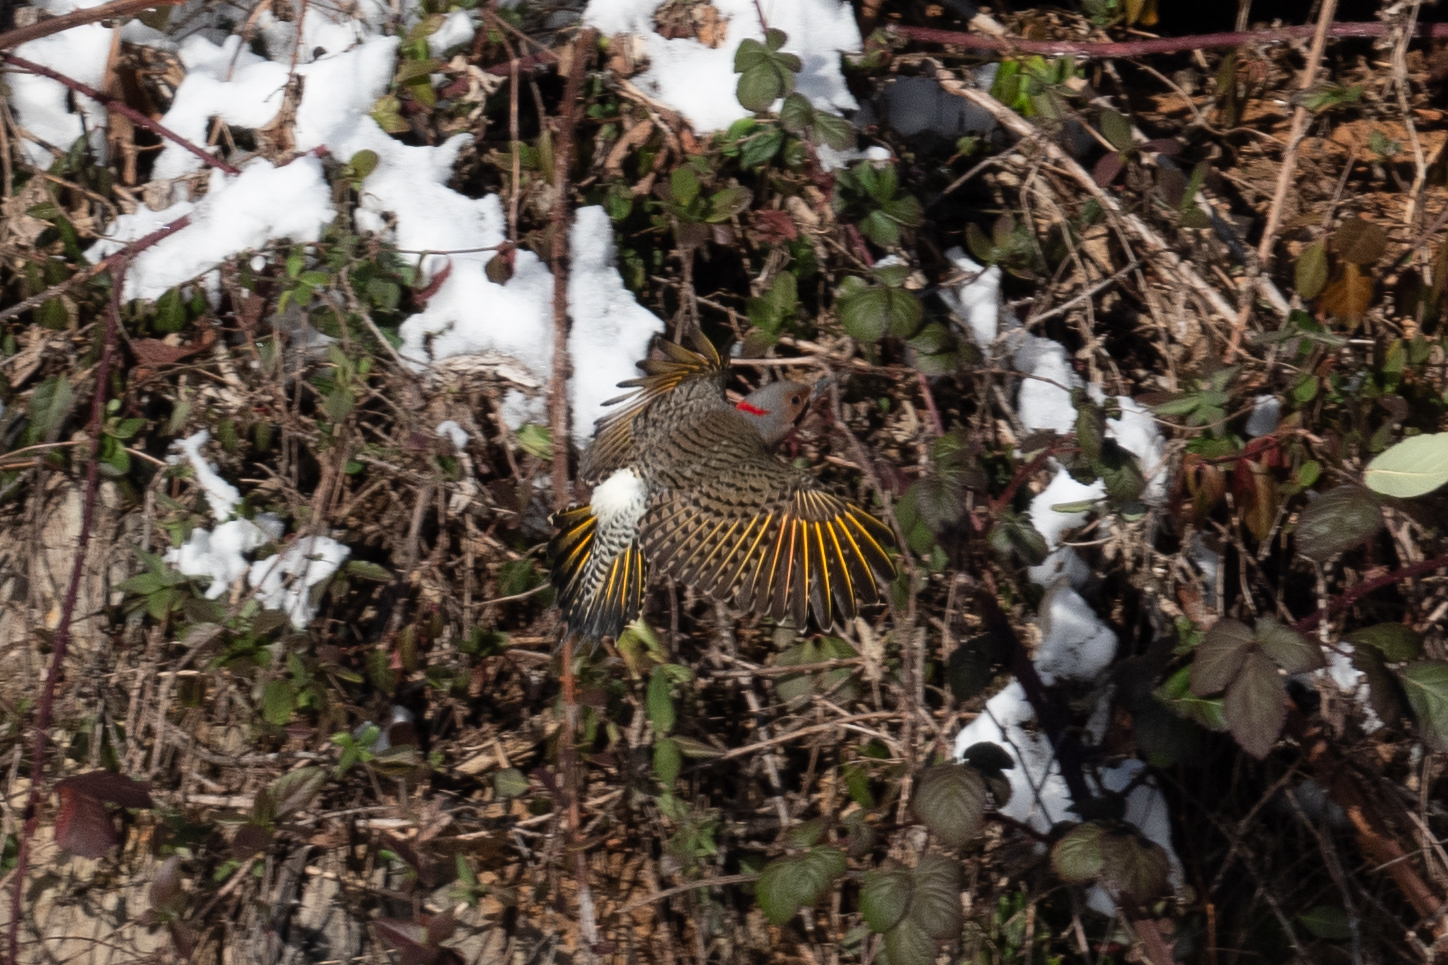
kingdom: Animalia
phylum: Chordata
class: Aves
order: Piciformes
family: Picidae
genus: Colaptes
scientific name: Colaptes auratus
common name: Northern flicker
